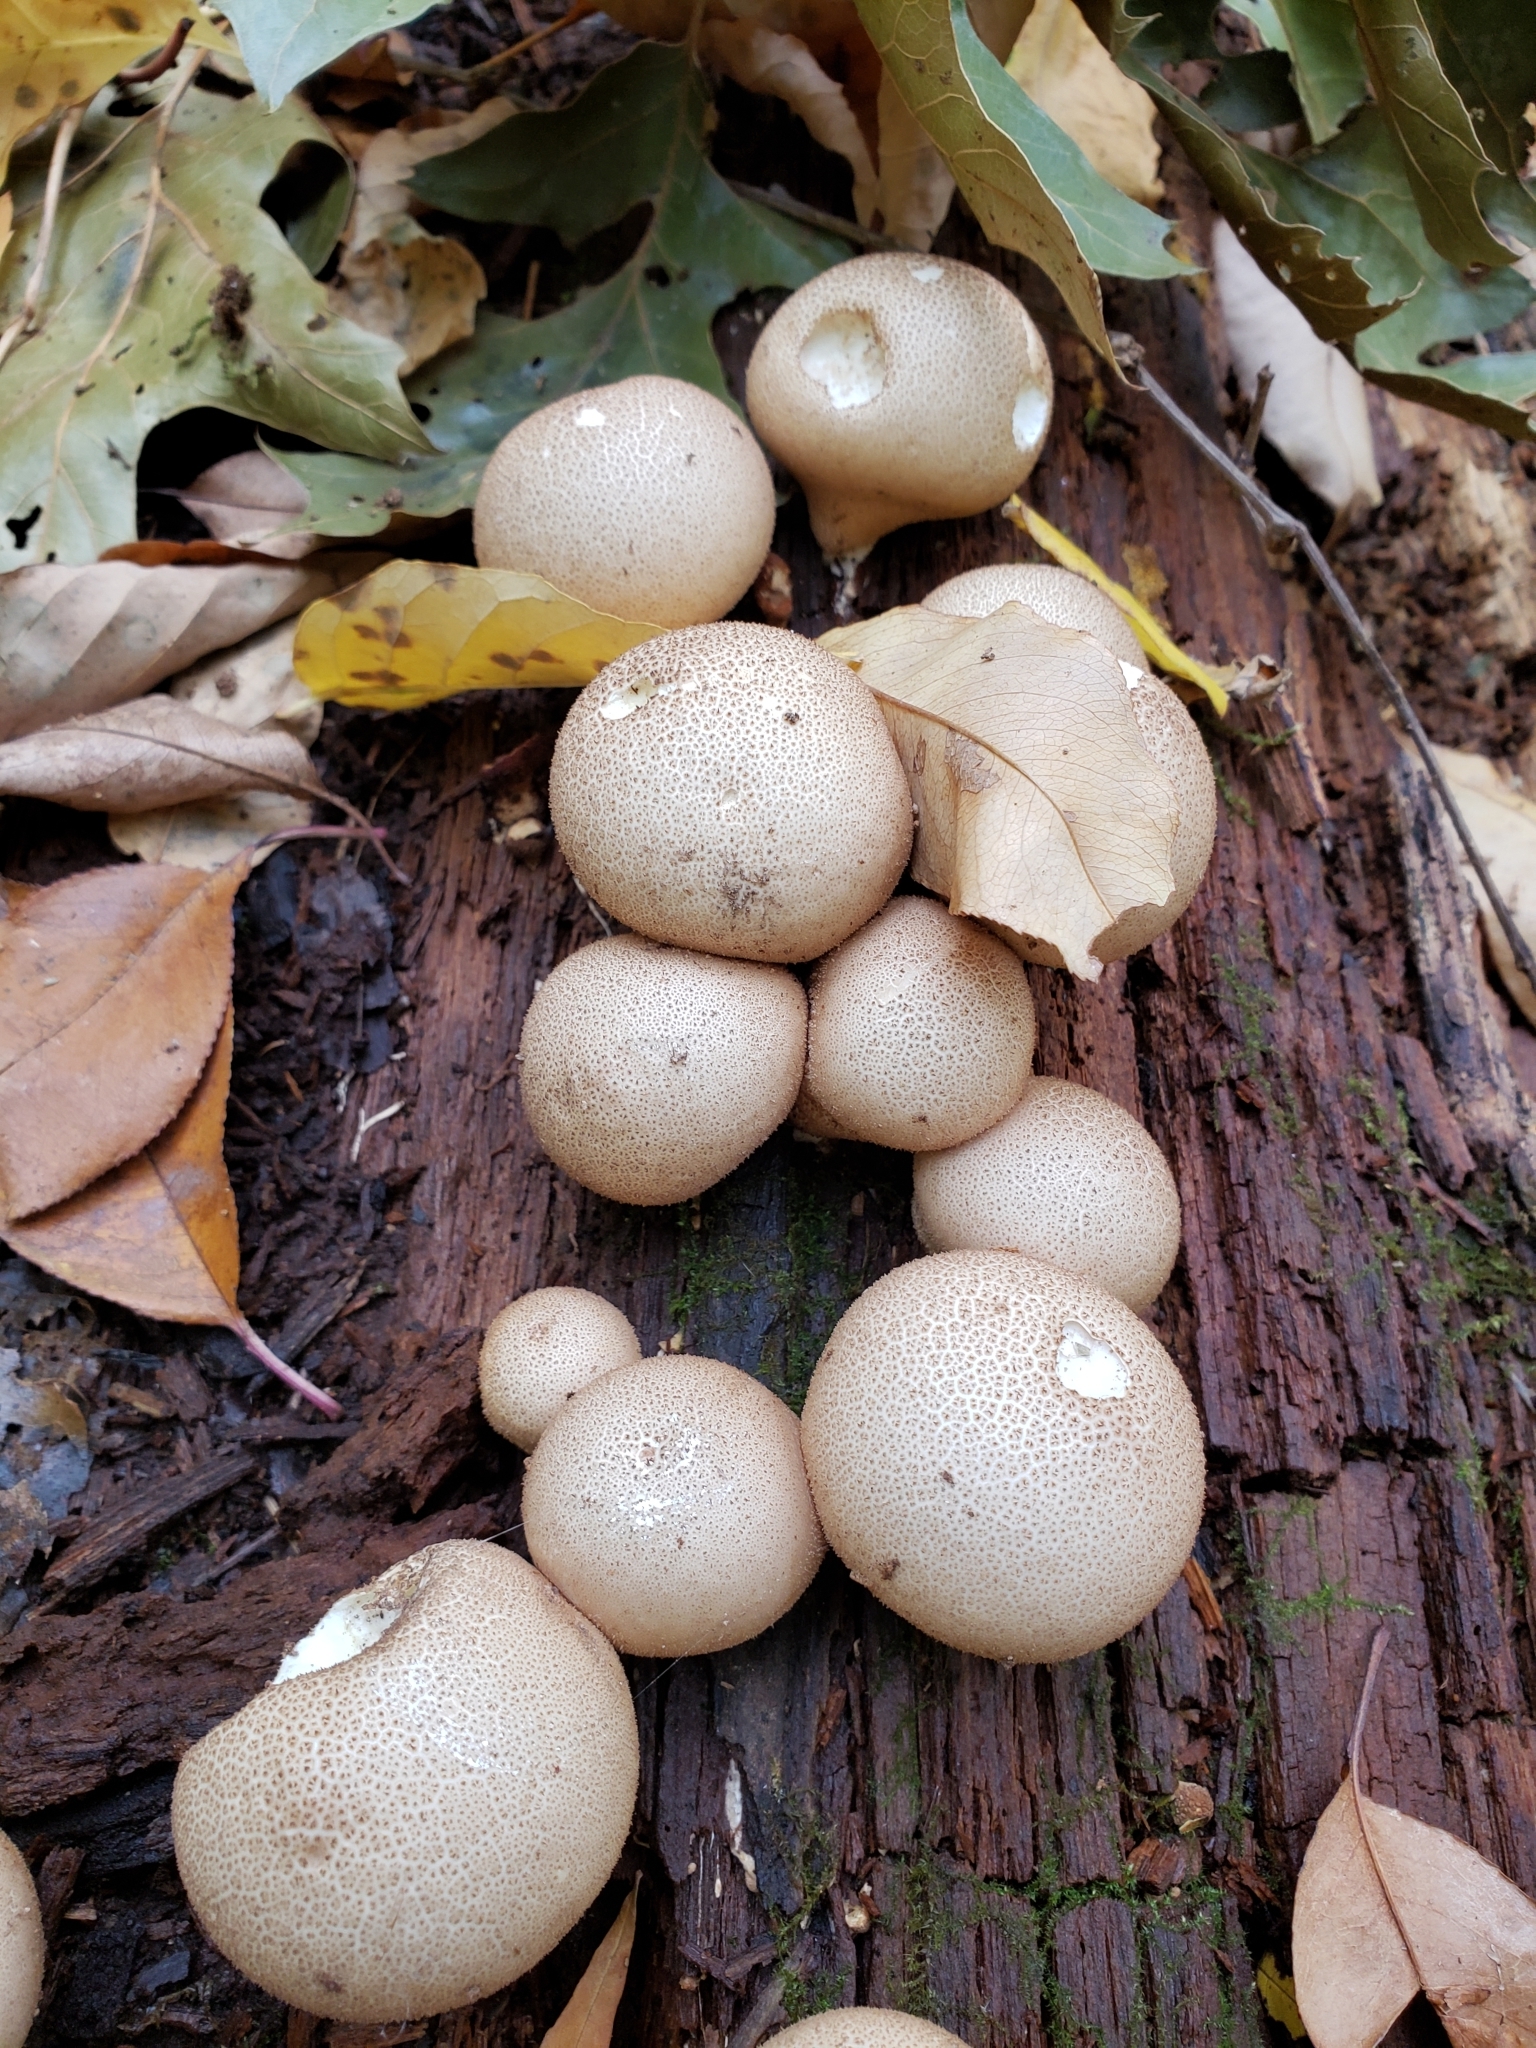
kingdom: Fungi
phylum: Basidiomycota
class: Agaricomycetes
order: Agaricales
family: Lycoperdaceae
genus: Apioperdon
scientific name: Apioperdon pyriforme
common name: Pear-shaped puffball
